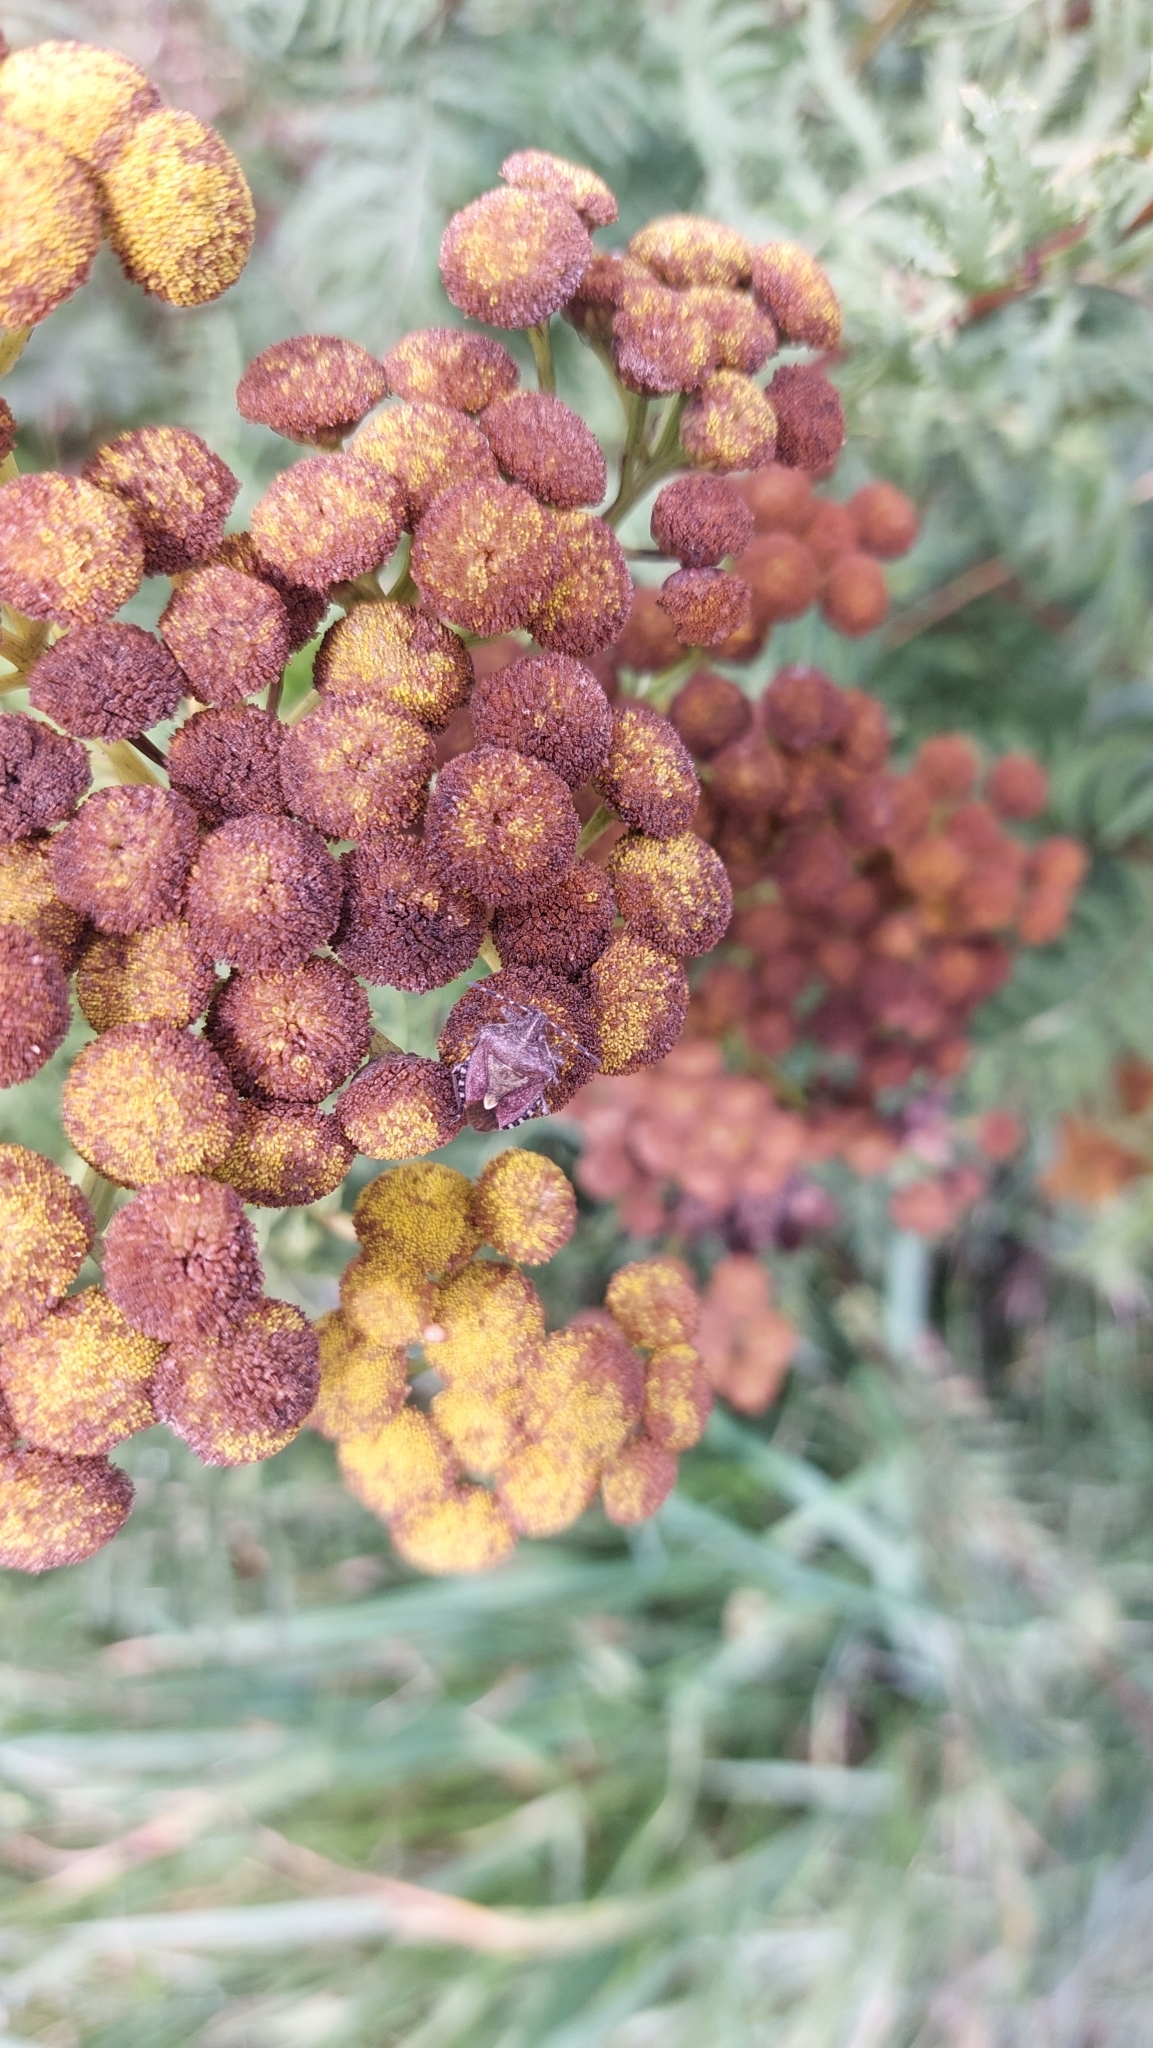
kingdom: Animalia
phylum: Arthropoda
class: Insecta
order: Hemiptera
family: Pentatomidae
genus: Dolycoris
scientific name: Dolycoris baccarum
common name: Sloe bug
